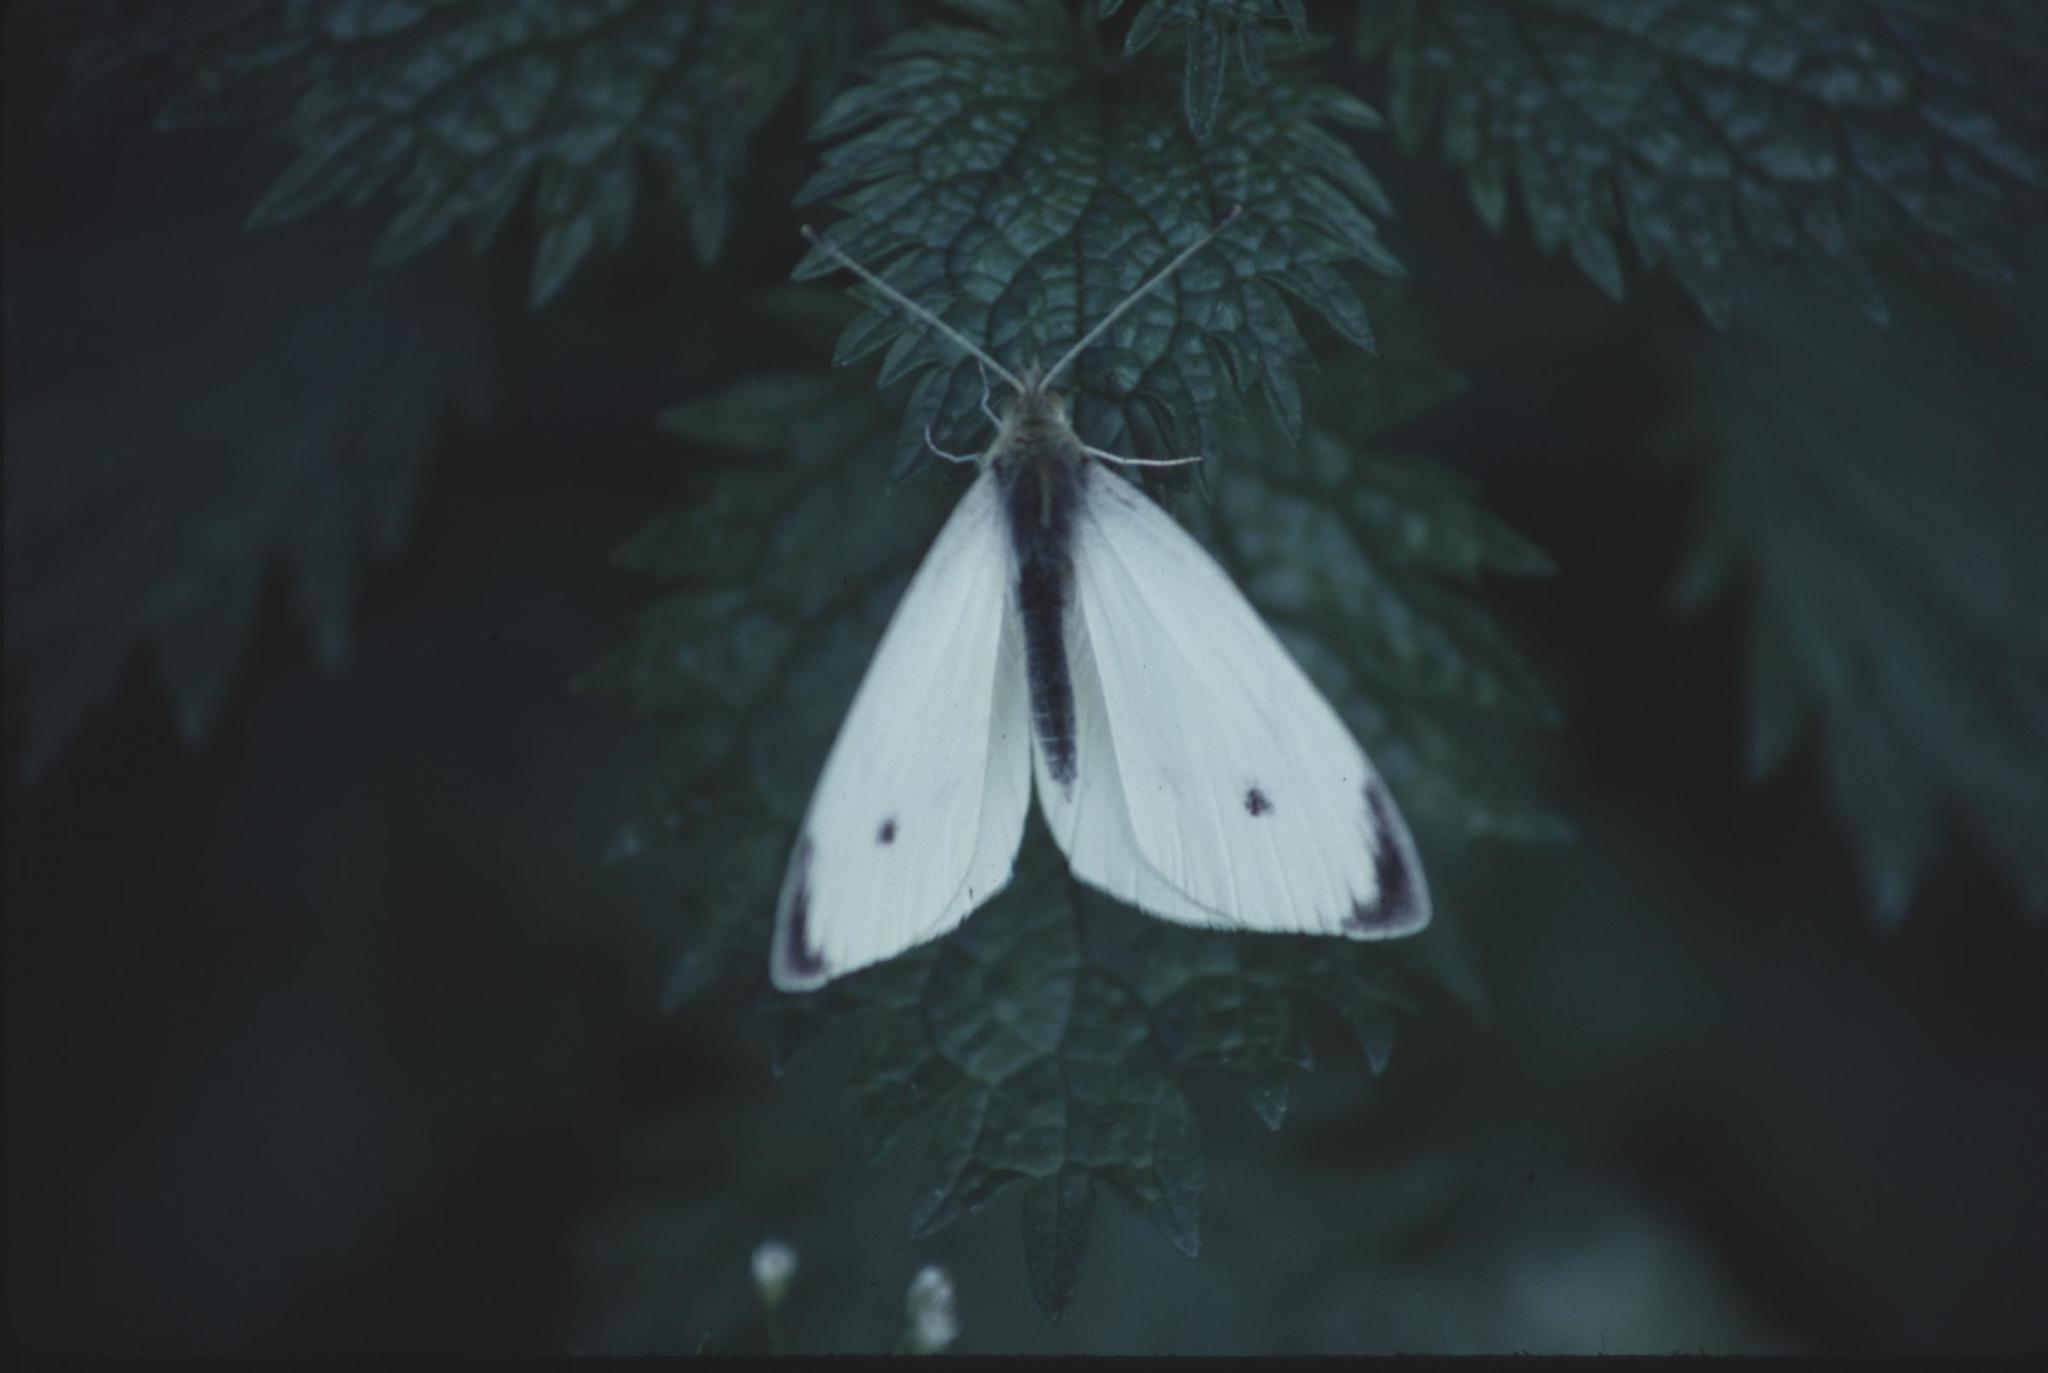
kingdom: Animalia
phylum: Arthropoda
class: Insecta
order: Lepidoptera
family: Pieridae
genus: Pieris
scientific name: Pieris rapae
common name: Small white
